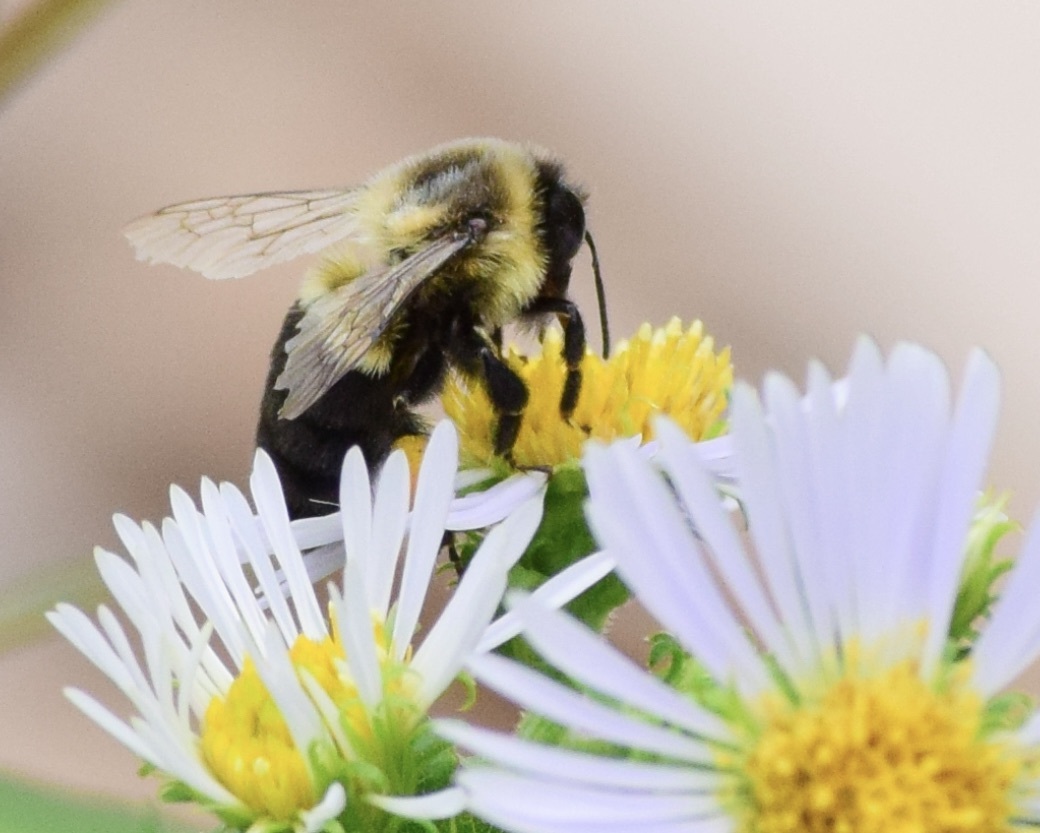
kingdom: Animalia
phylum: Arthropoda
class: Insecta
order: Hymenoptera
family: Apidae
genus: Bombus
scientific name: Bombus impatiens
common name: Common eastern bumble bee
